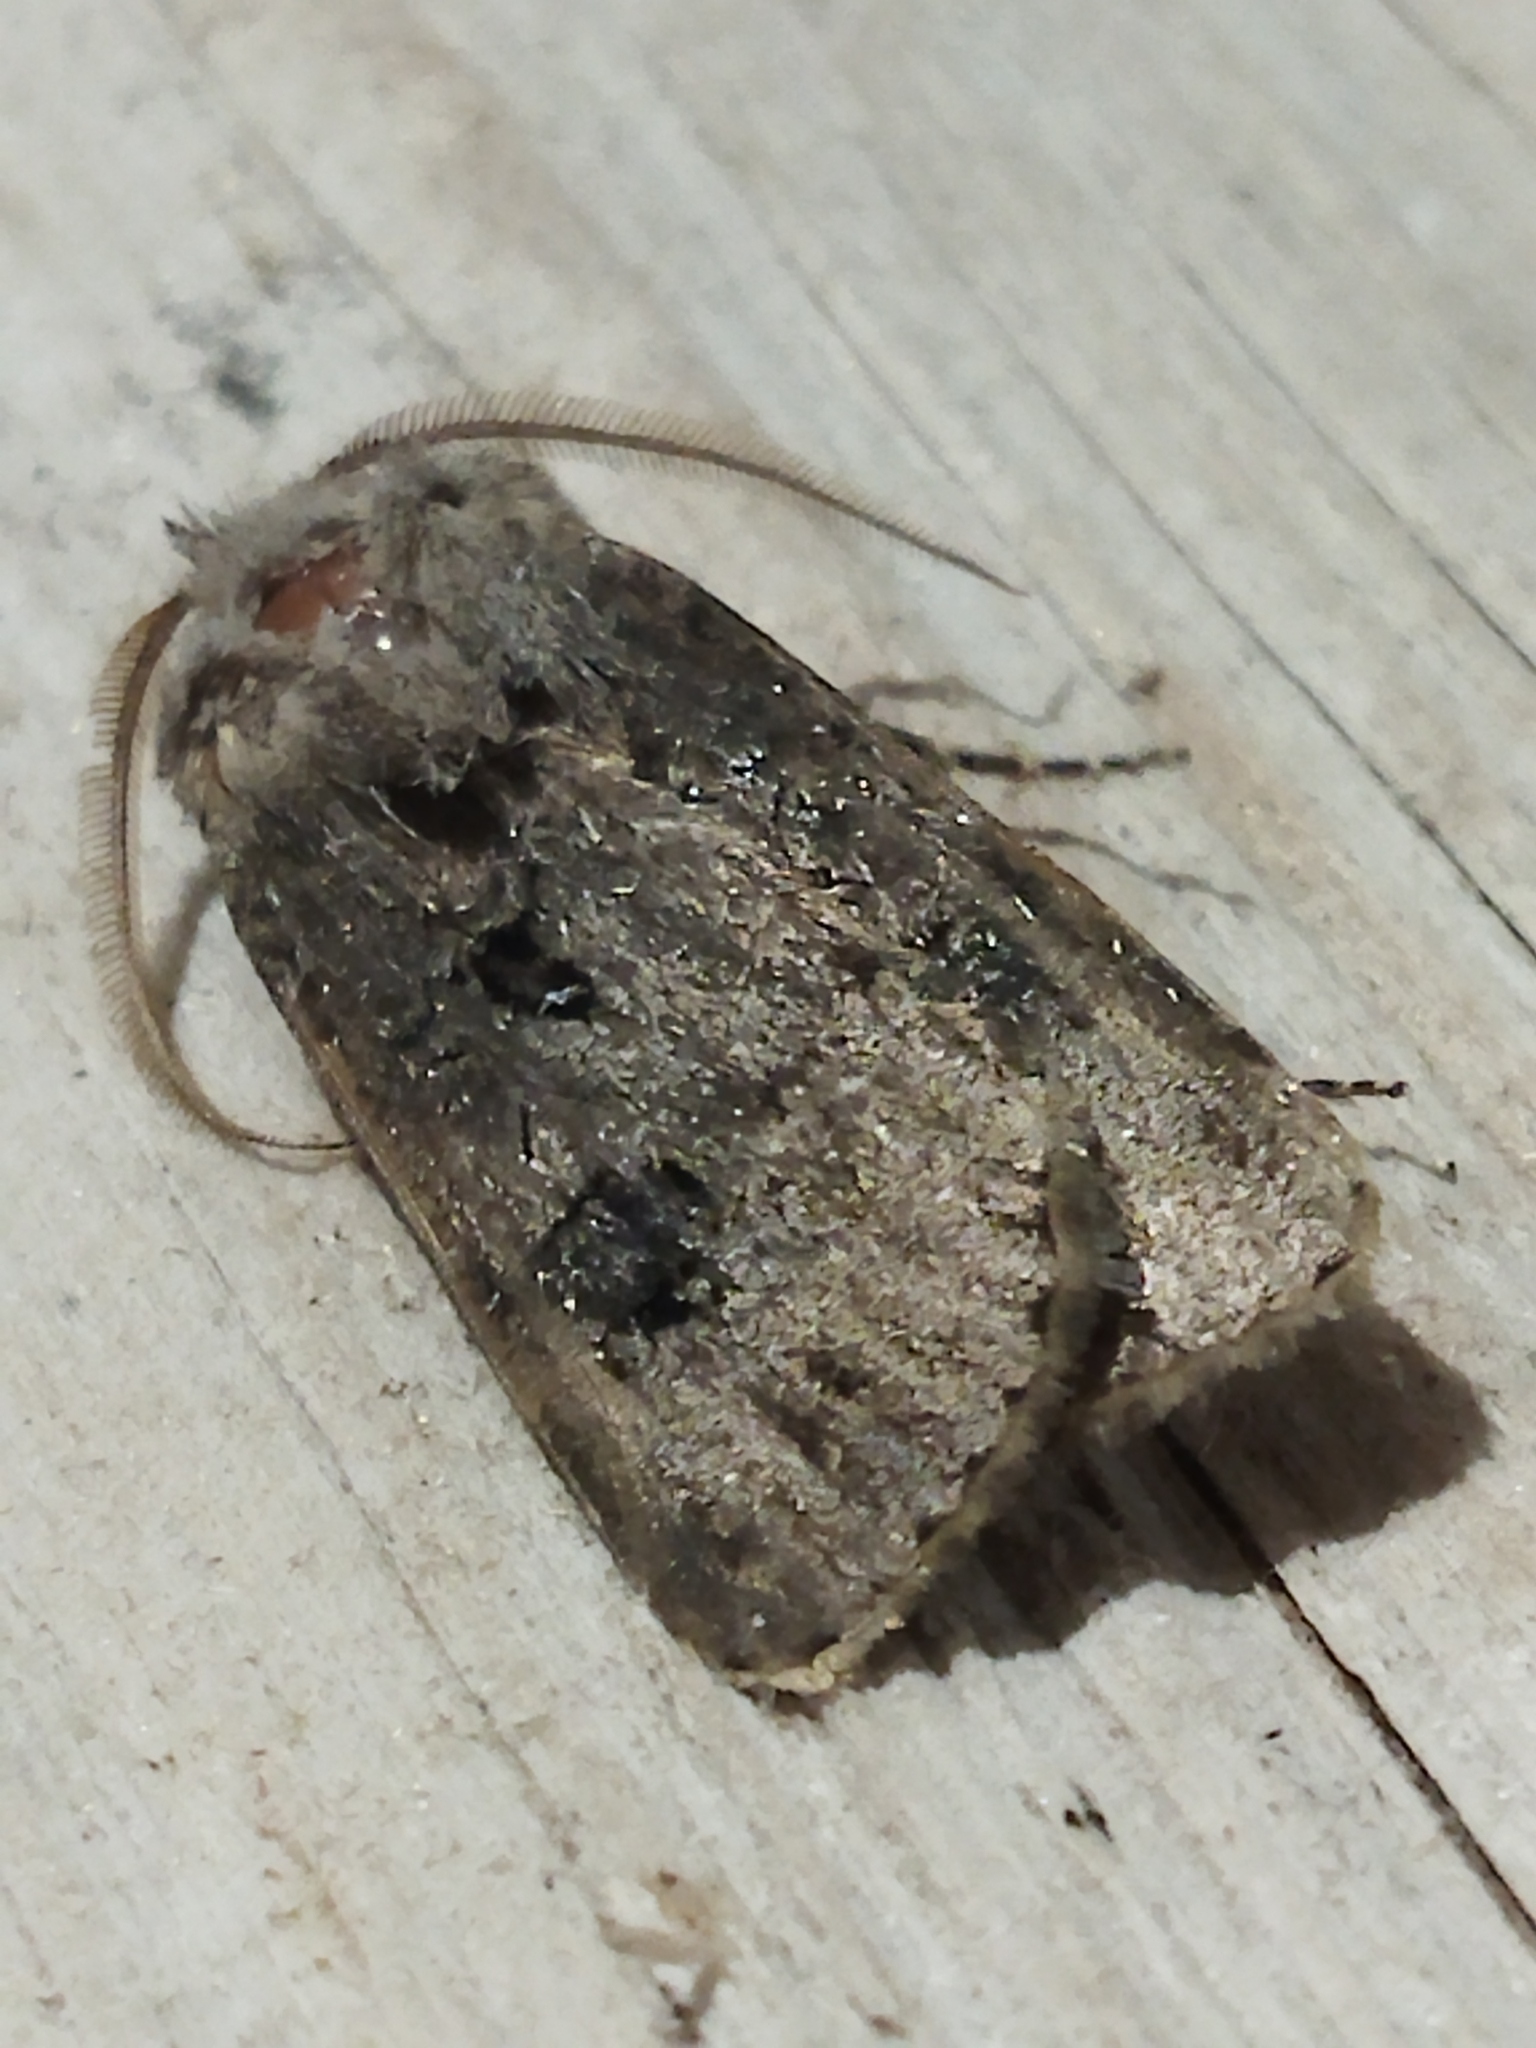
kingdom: Animalia
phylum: Arthropoda
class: Insecta
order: Lepidoptera
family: Noctuidae
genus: Agrotis
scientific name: Agrotis bigramma
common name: Great dart
